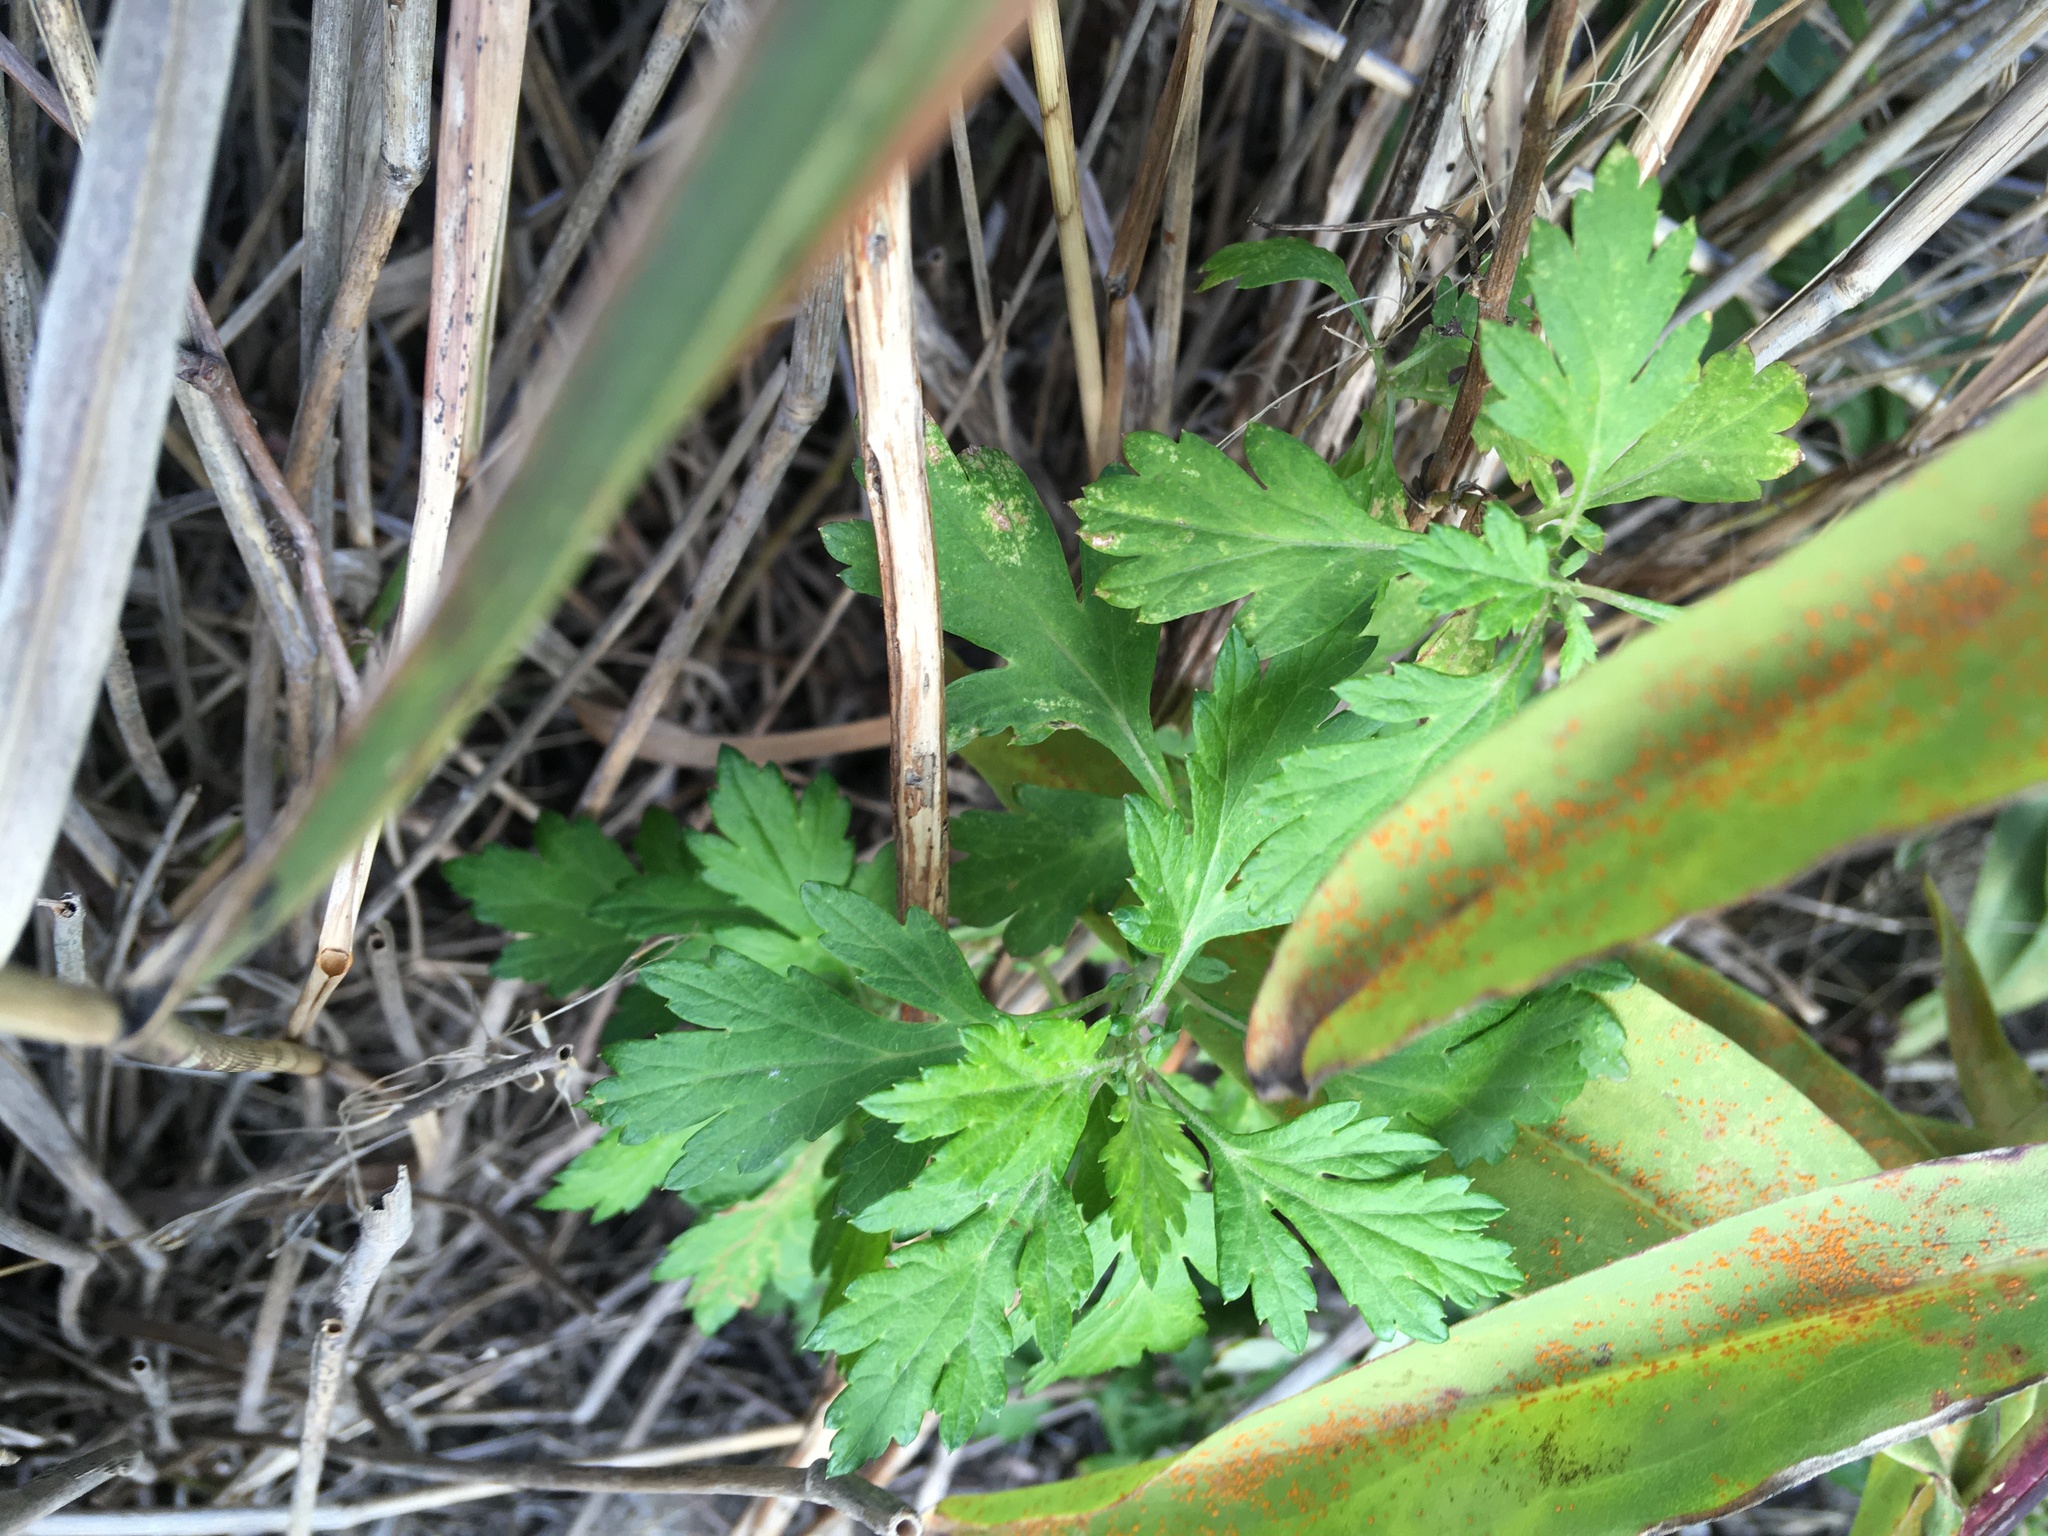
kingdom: Plantae
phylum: Tracheophyta
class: Magnoliopsida
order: Asterales
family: Asteraceae
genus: Artemisia
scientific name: Artemisia vulgaris
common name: Mugwort
